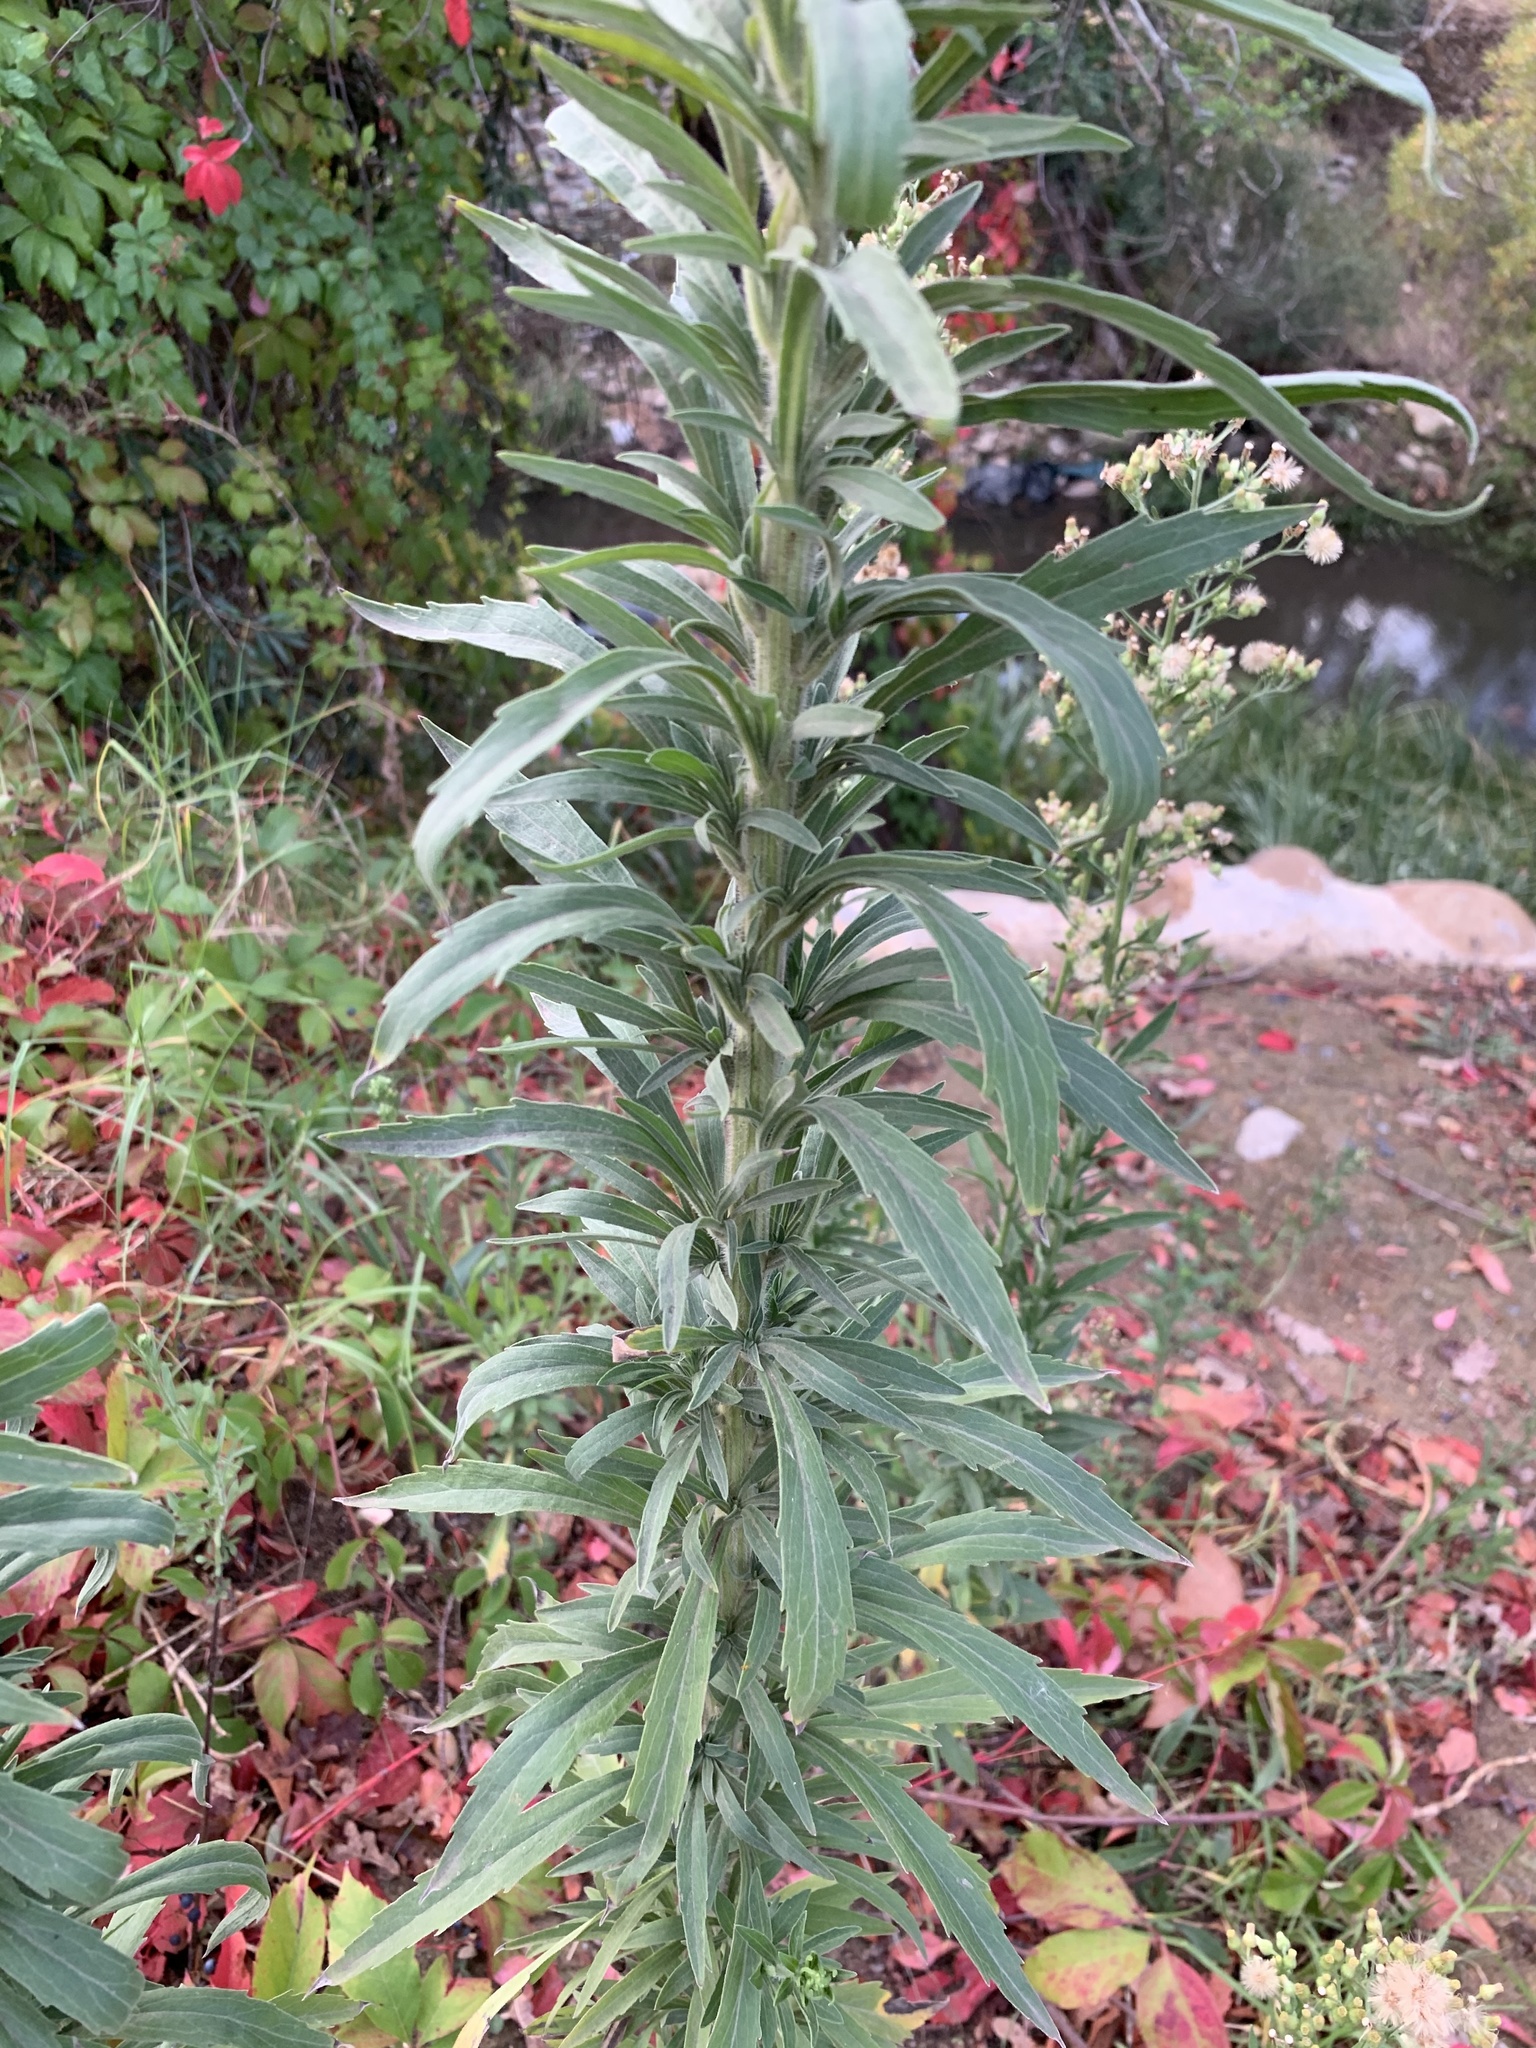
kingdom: Plantae
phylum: Tracheophyta
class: Magnoliopsida
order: Asterales
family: Asteraceae
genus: Erigeron
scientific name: Erigeron sumatrensis
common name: Daisy
